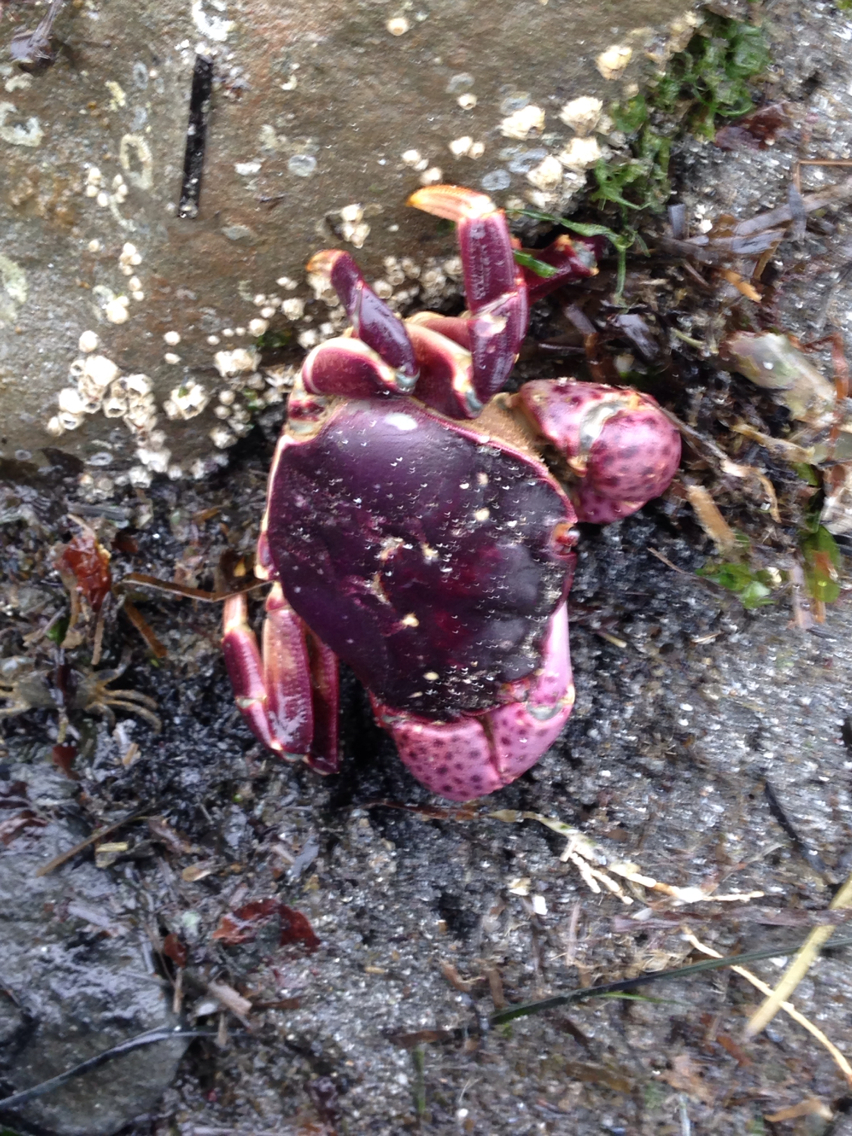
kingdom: Animalia
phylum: Arthropoda
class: Malacostraca
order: Decapoda
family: Varunidae
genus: Hemigrapsus
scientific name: Hemigrapsus nudus
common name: Purple shore crab
